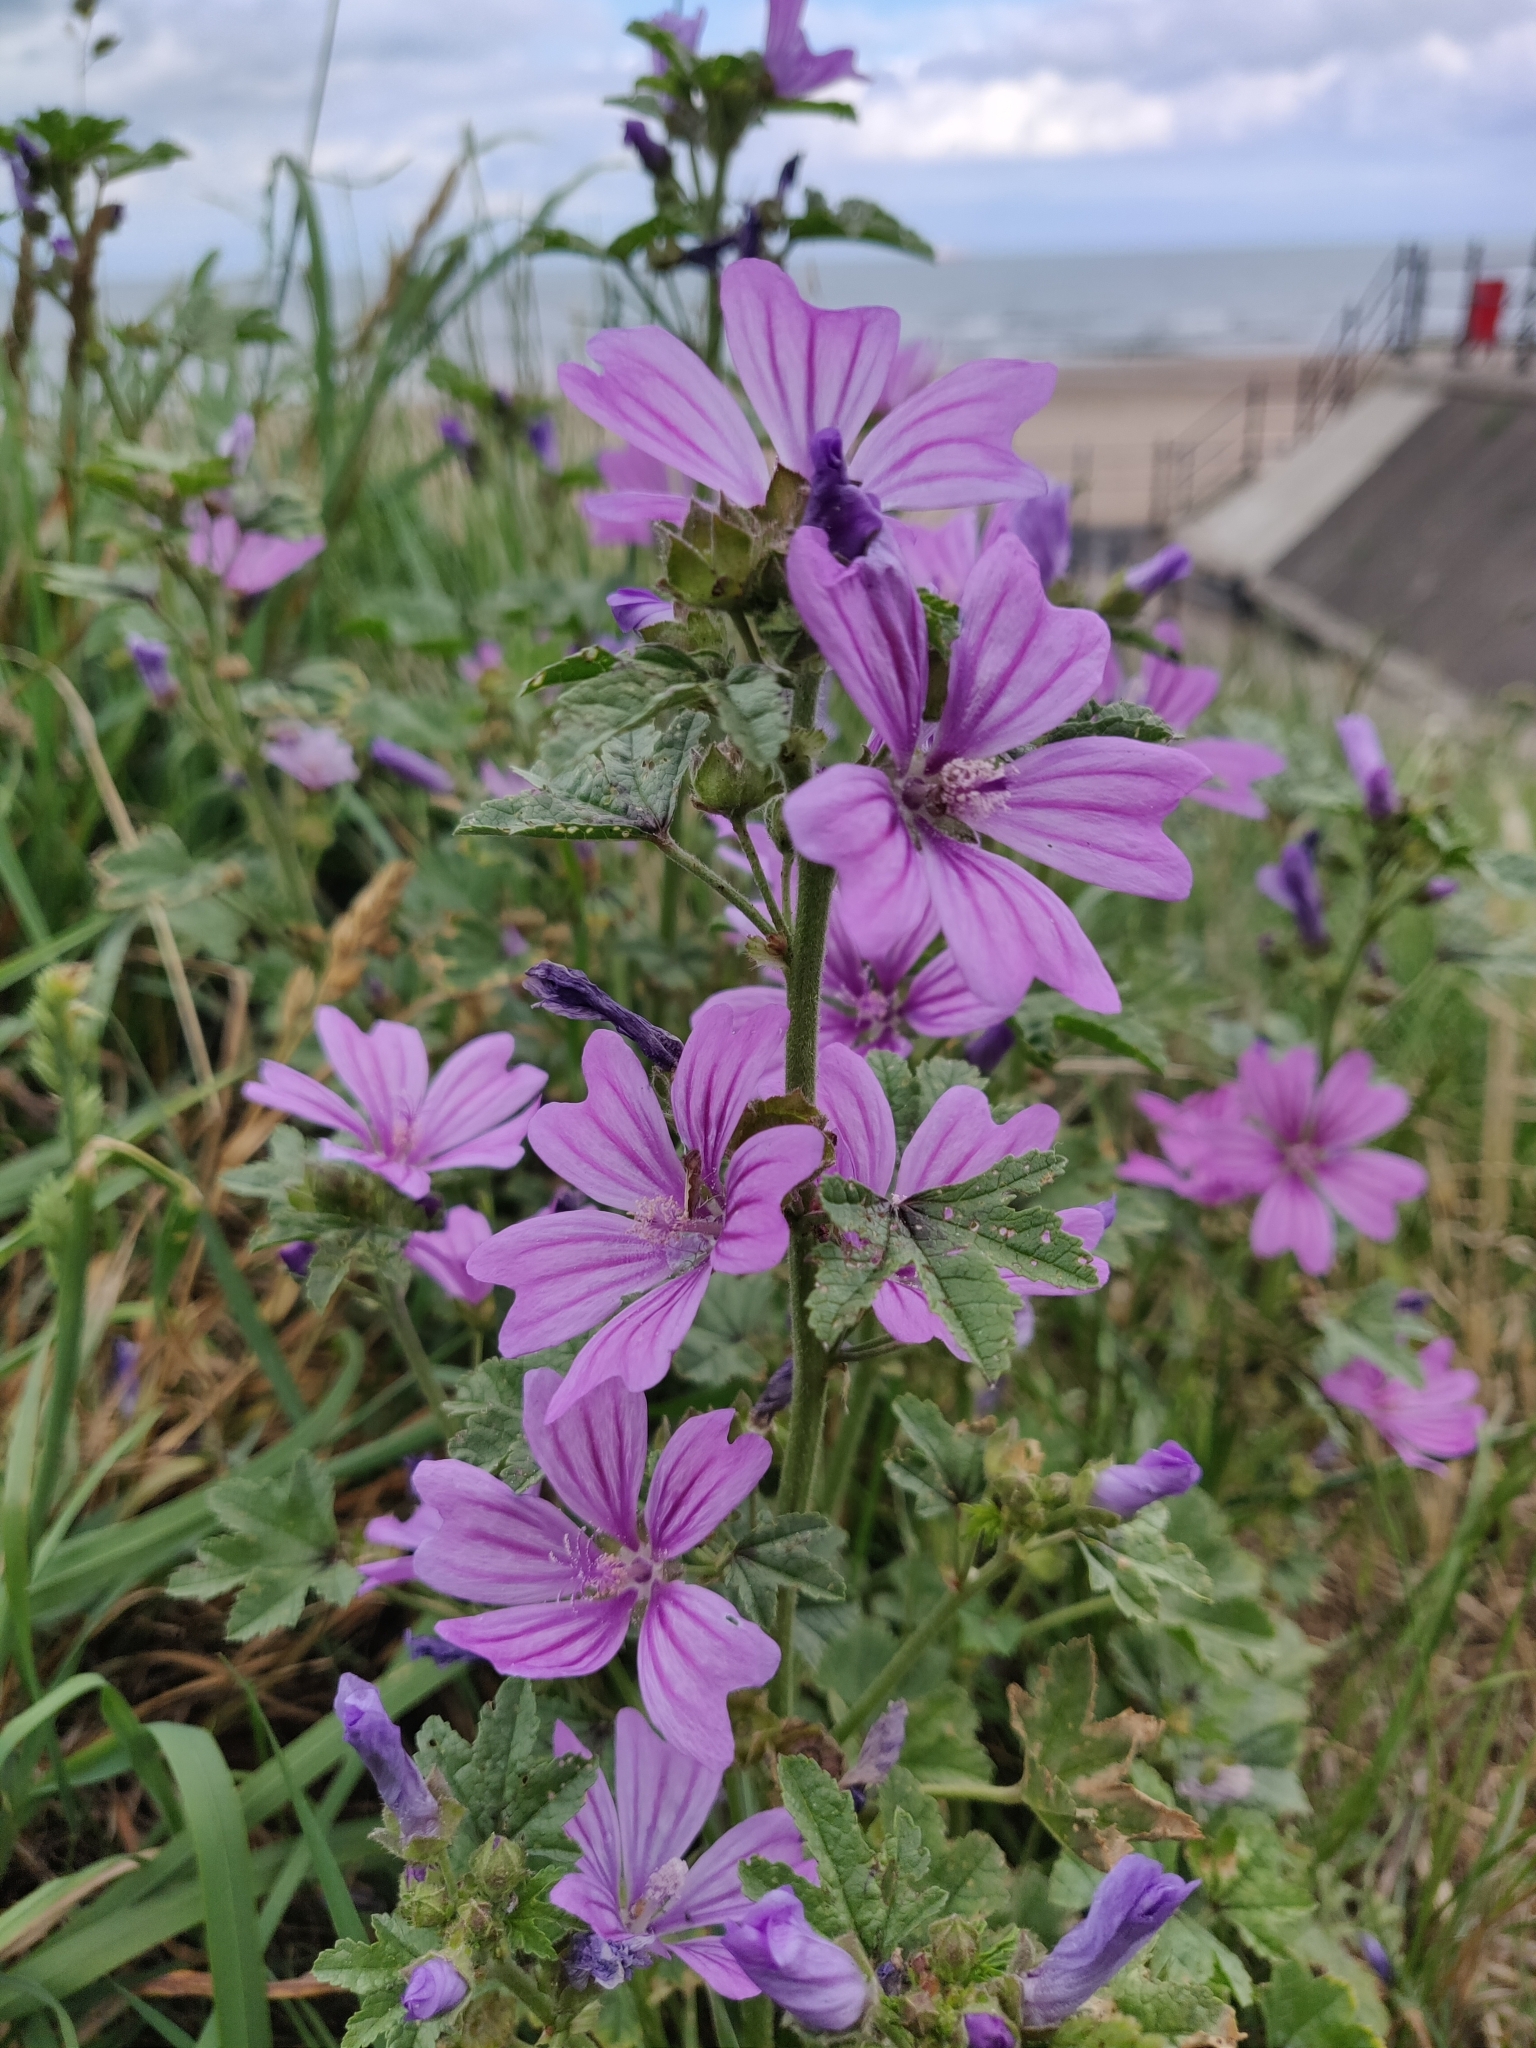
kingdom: Plantae
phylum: Tracheophyta
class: Magnoliopsida
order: Malvales
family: Malvaceae
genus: Malva
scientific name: Malva sylvestris
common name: Common mallow
